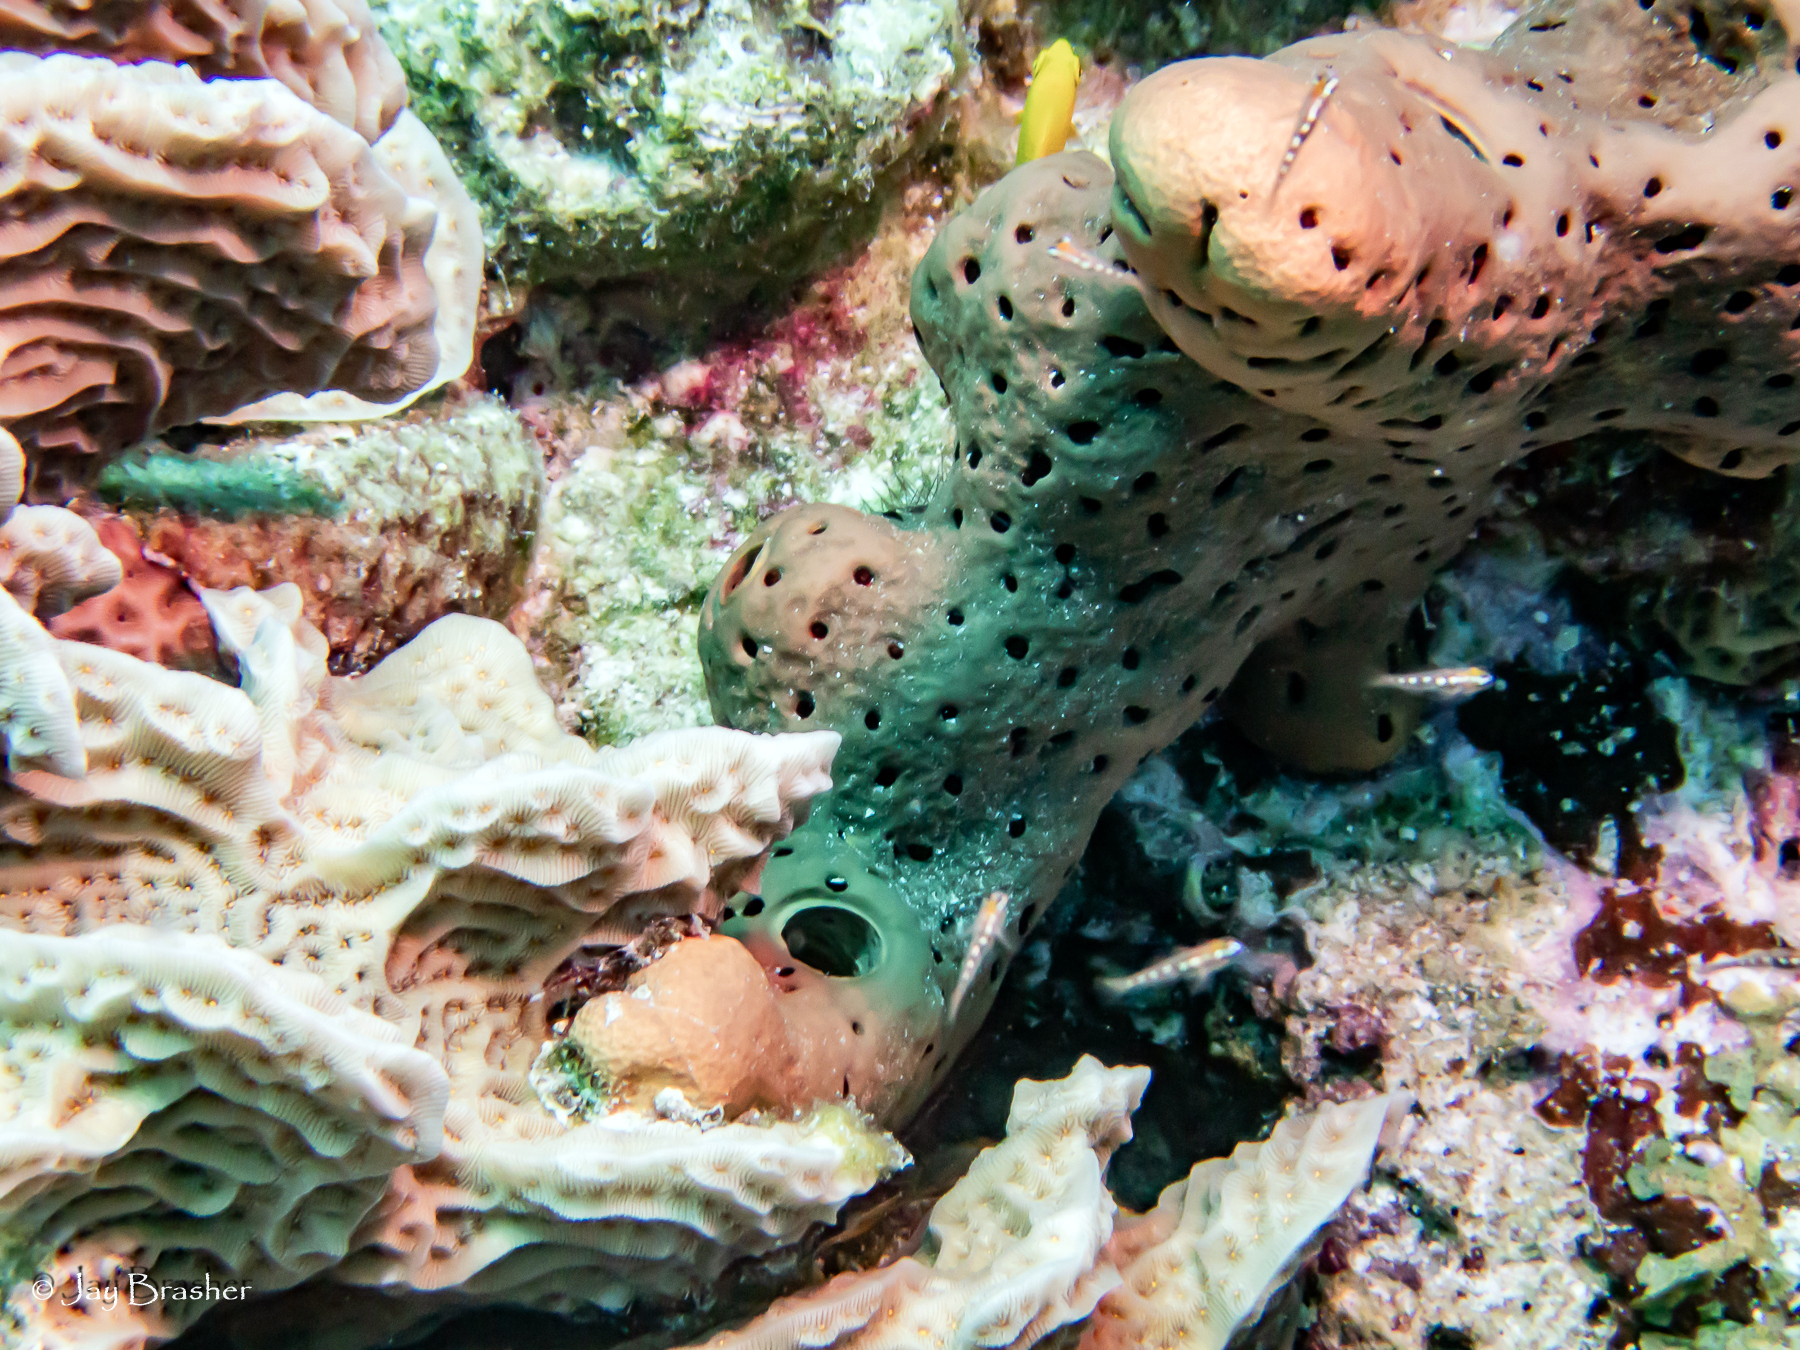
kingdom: Animalia
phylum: Porifera
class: Demospongiae
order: Agelasida
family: Agelasidae
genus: Agelas
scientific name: Agelas conifera
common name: Brown tube sponge
